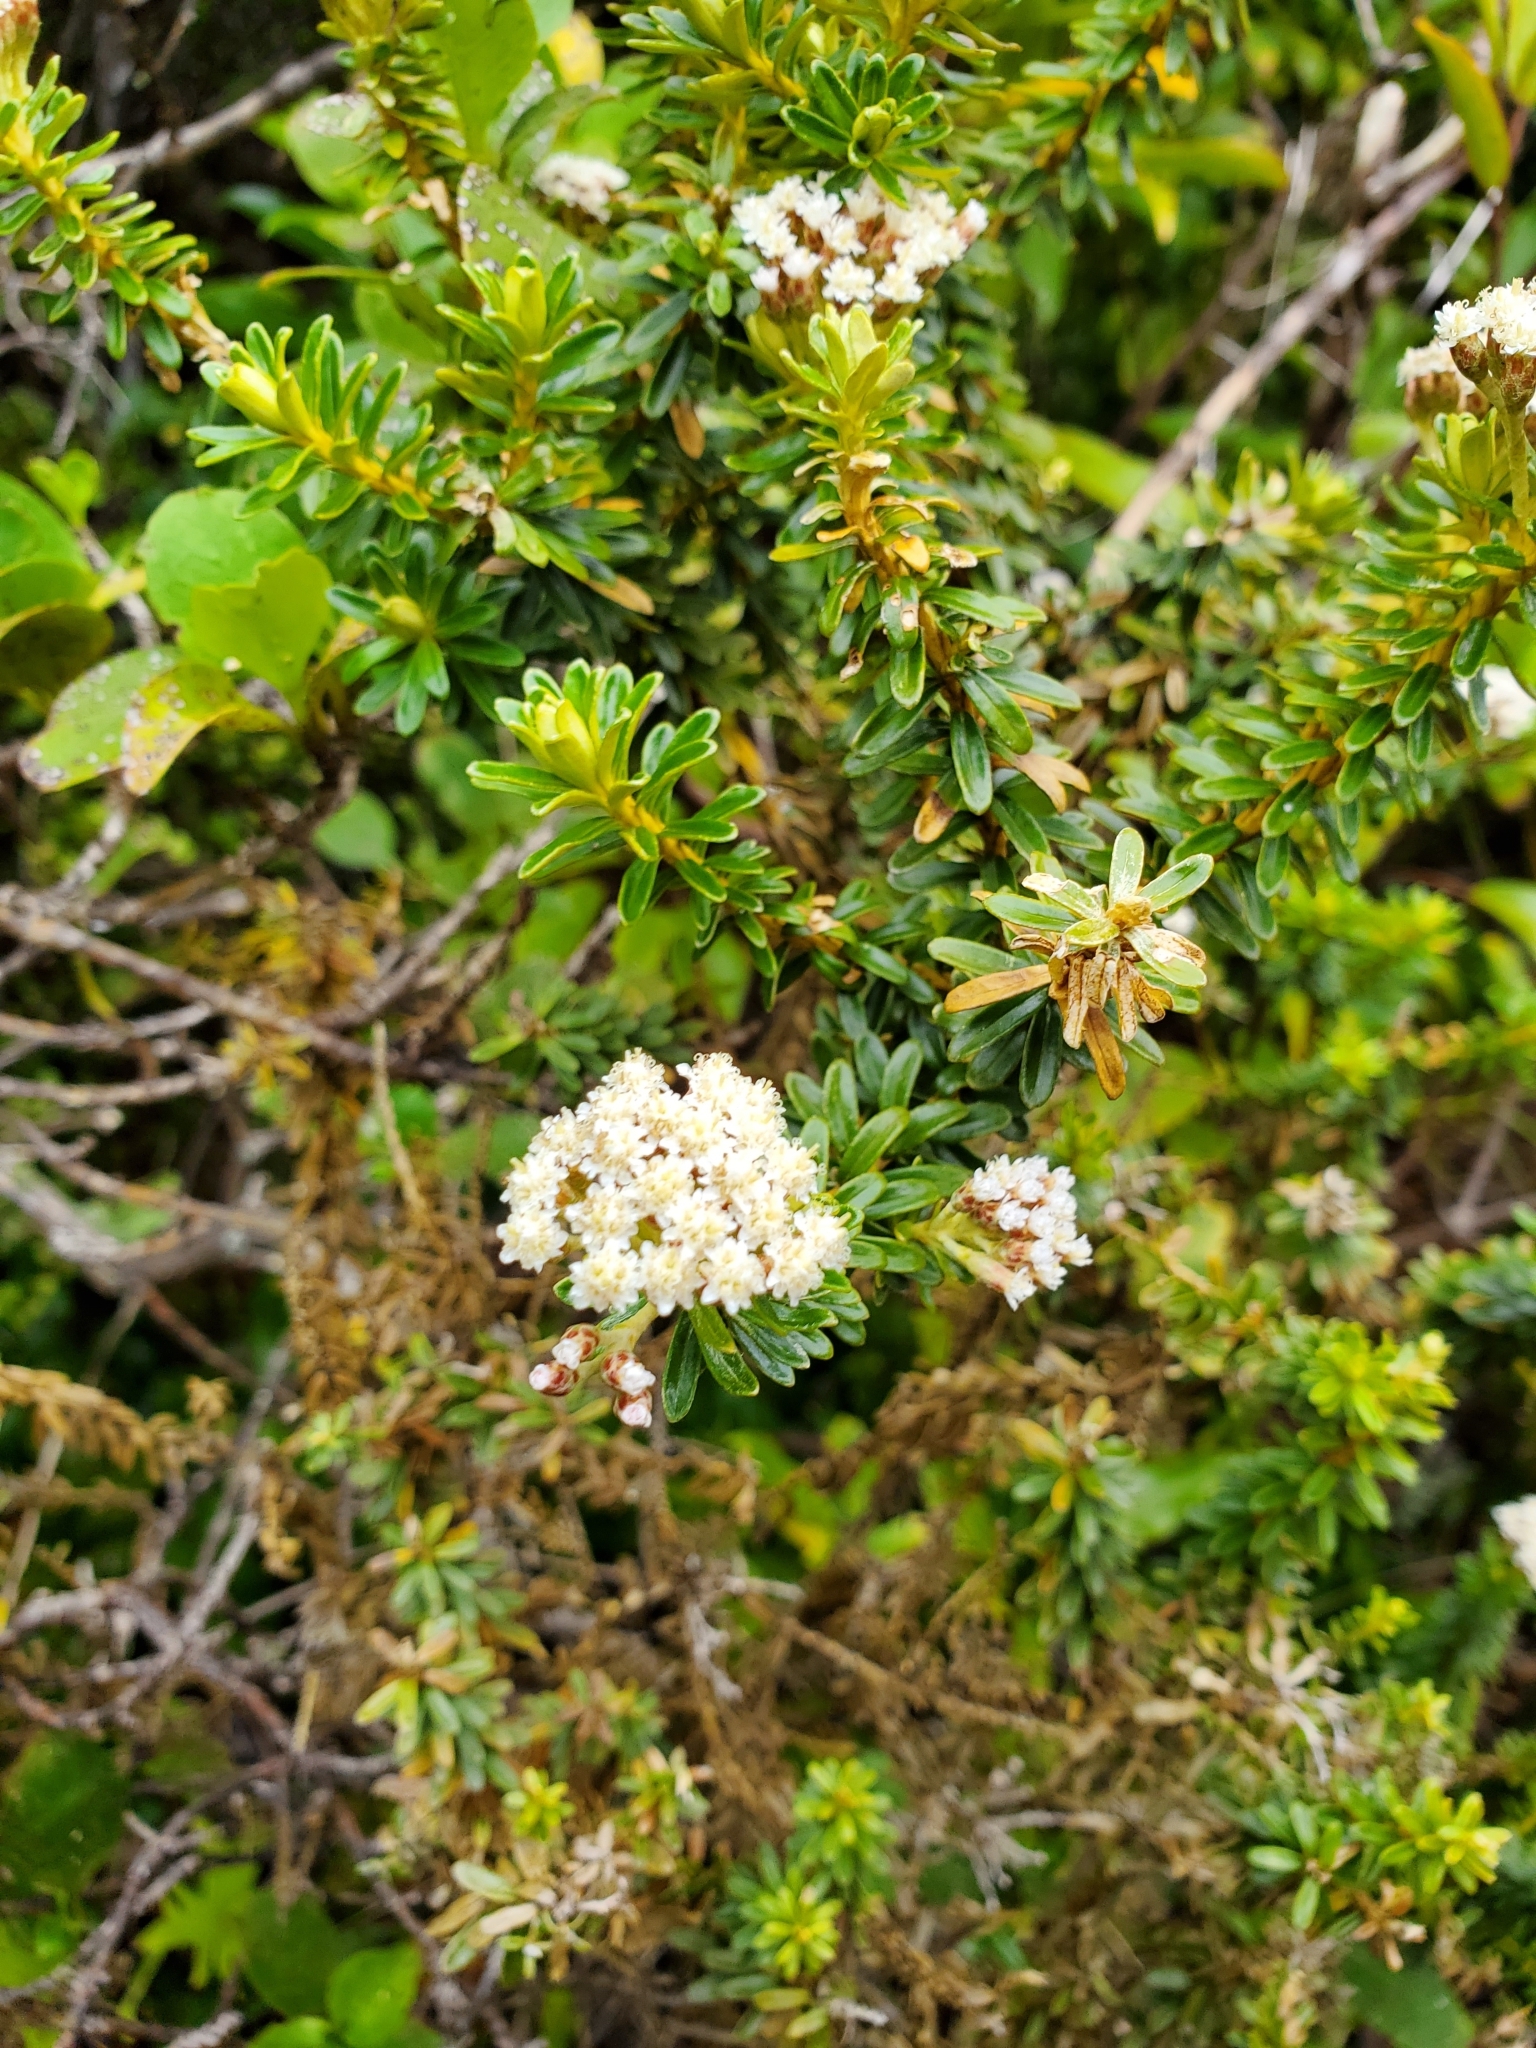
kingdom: Plantae
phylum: Tracheophyta
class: Magnoliopsida
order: Asterales
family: Asteraceae
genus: Ozothamnus
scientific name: Ozothamnus leptophyllus
